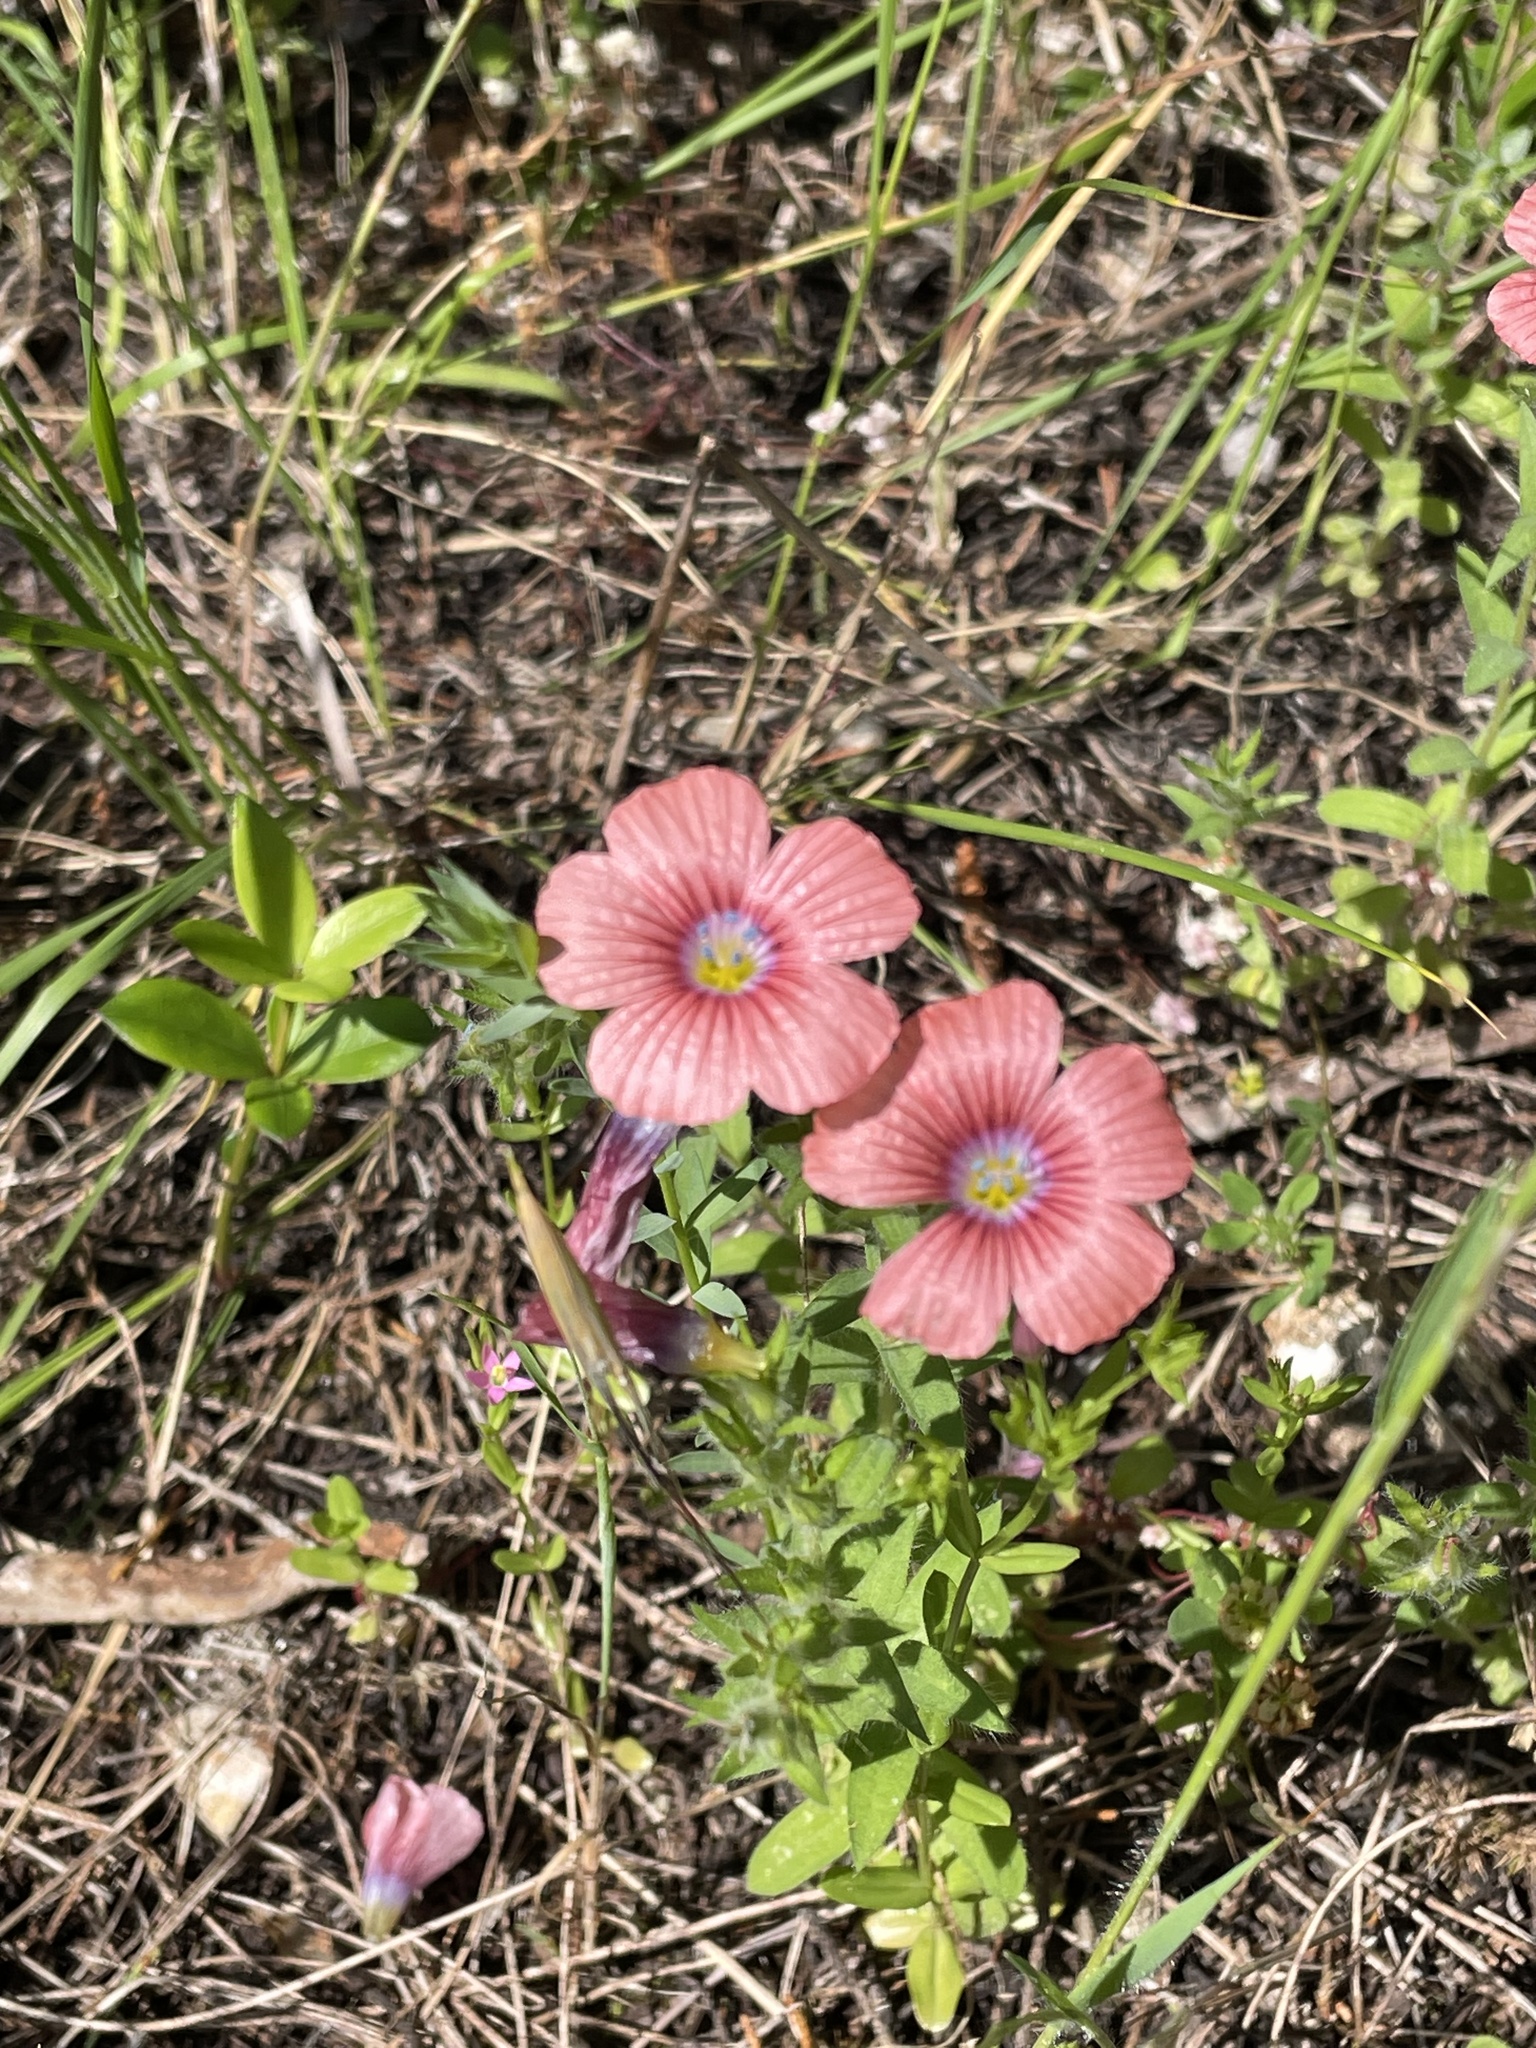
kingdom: Plantae
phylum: Tracheophyta
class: Magnoliopsida
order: Malpighiales
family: Linaceae
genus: Linum
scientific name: Linum pubescens
